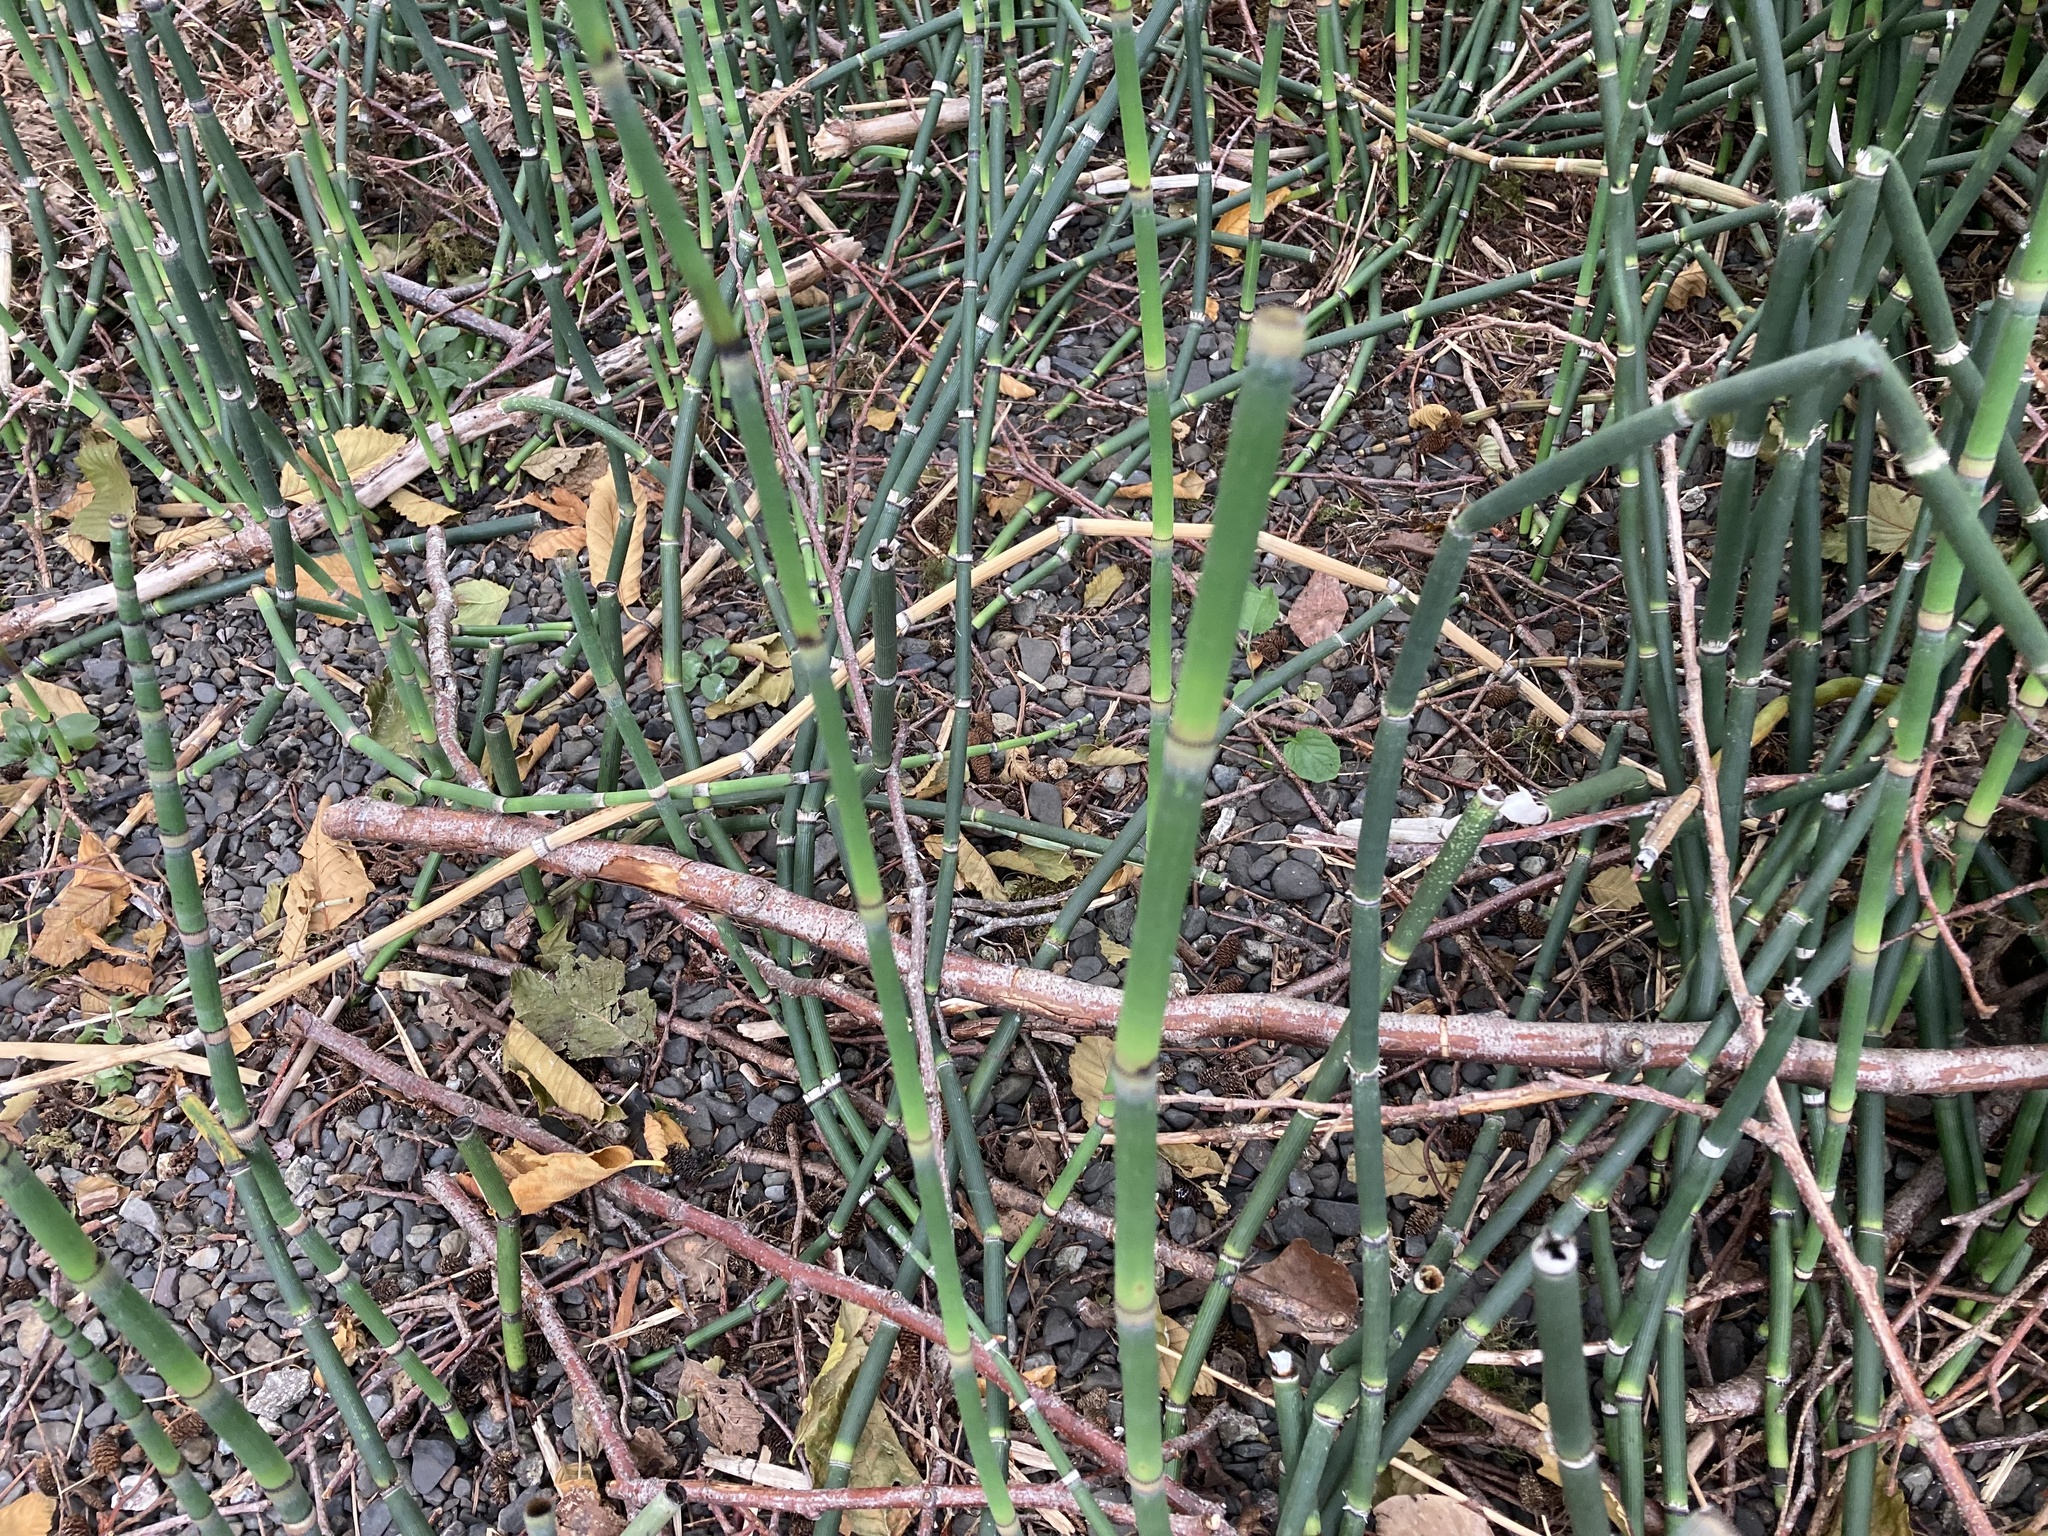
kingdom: Plantae
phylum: Tracheophyta
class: Polypodiopsida
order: Equisetales
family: Equisetaceae
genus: Equisetum
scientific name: Equisetum hyemale
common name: Rough horsetail
